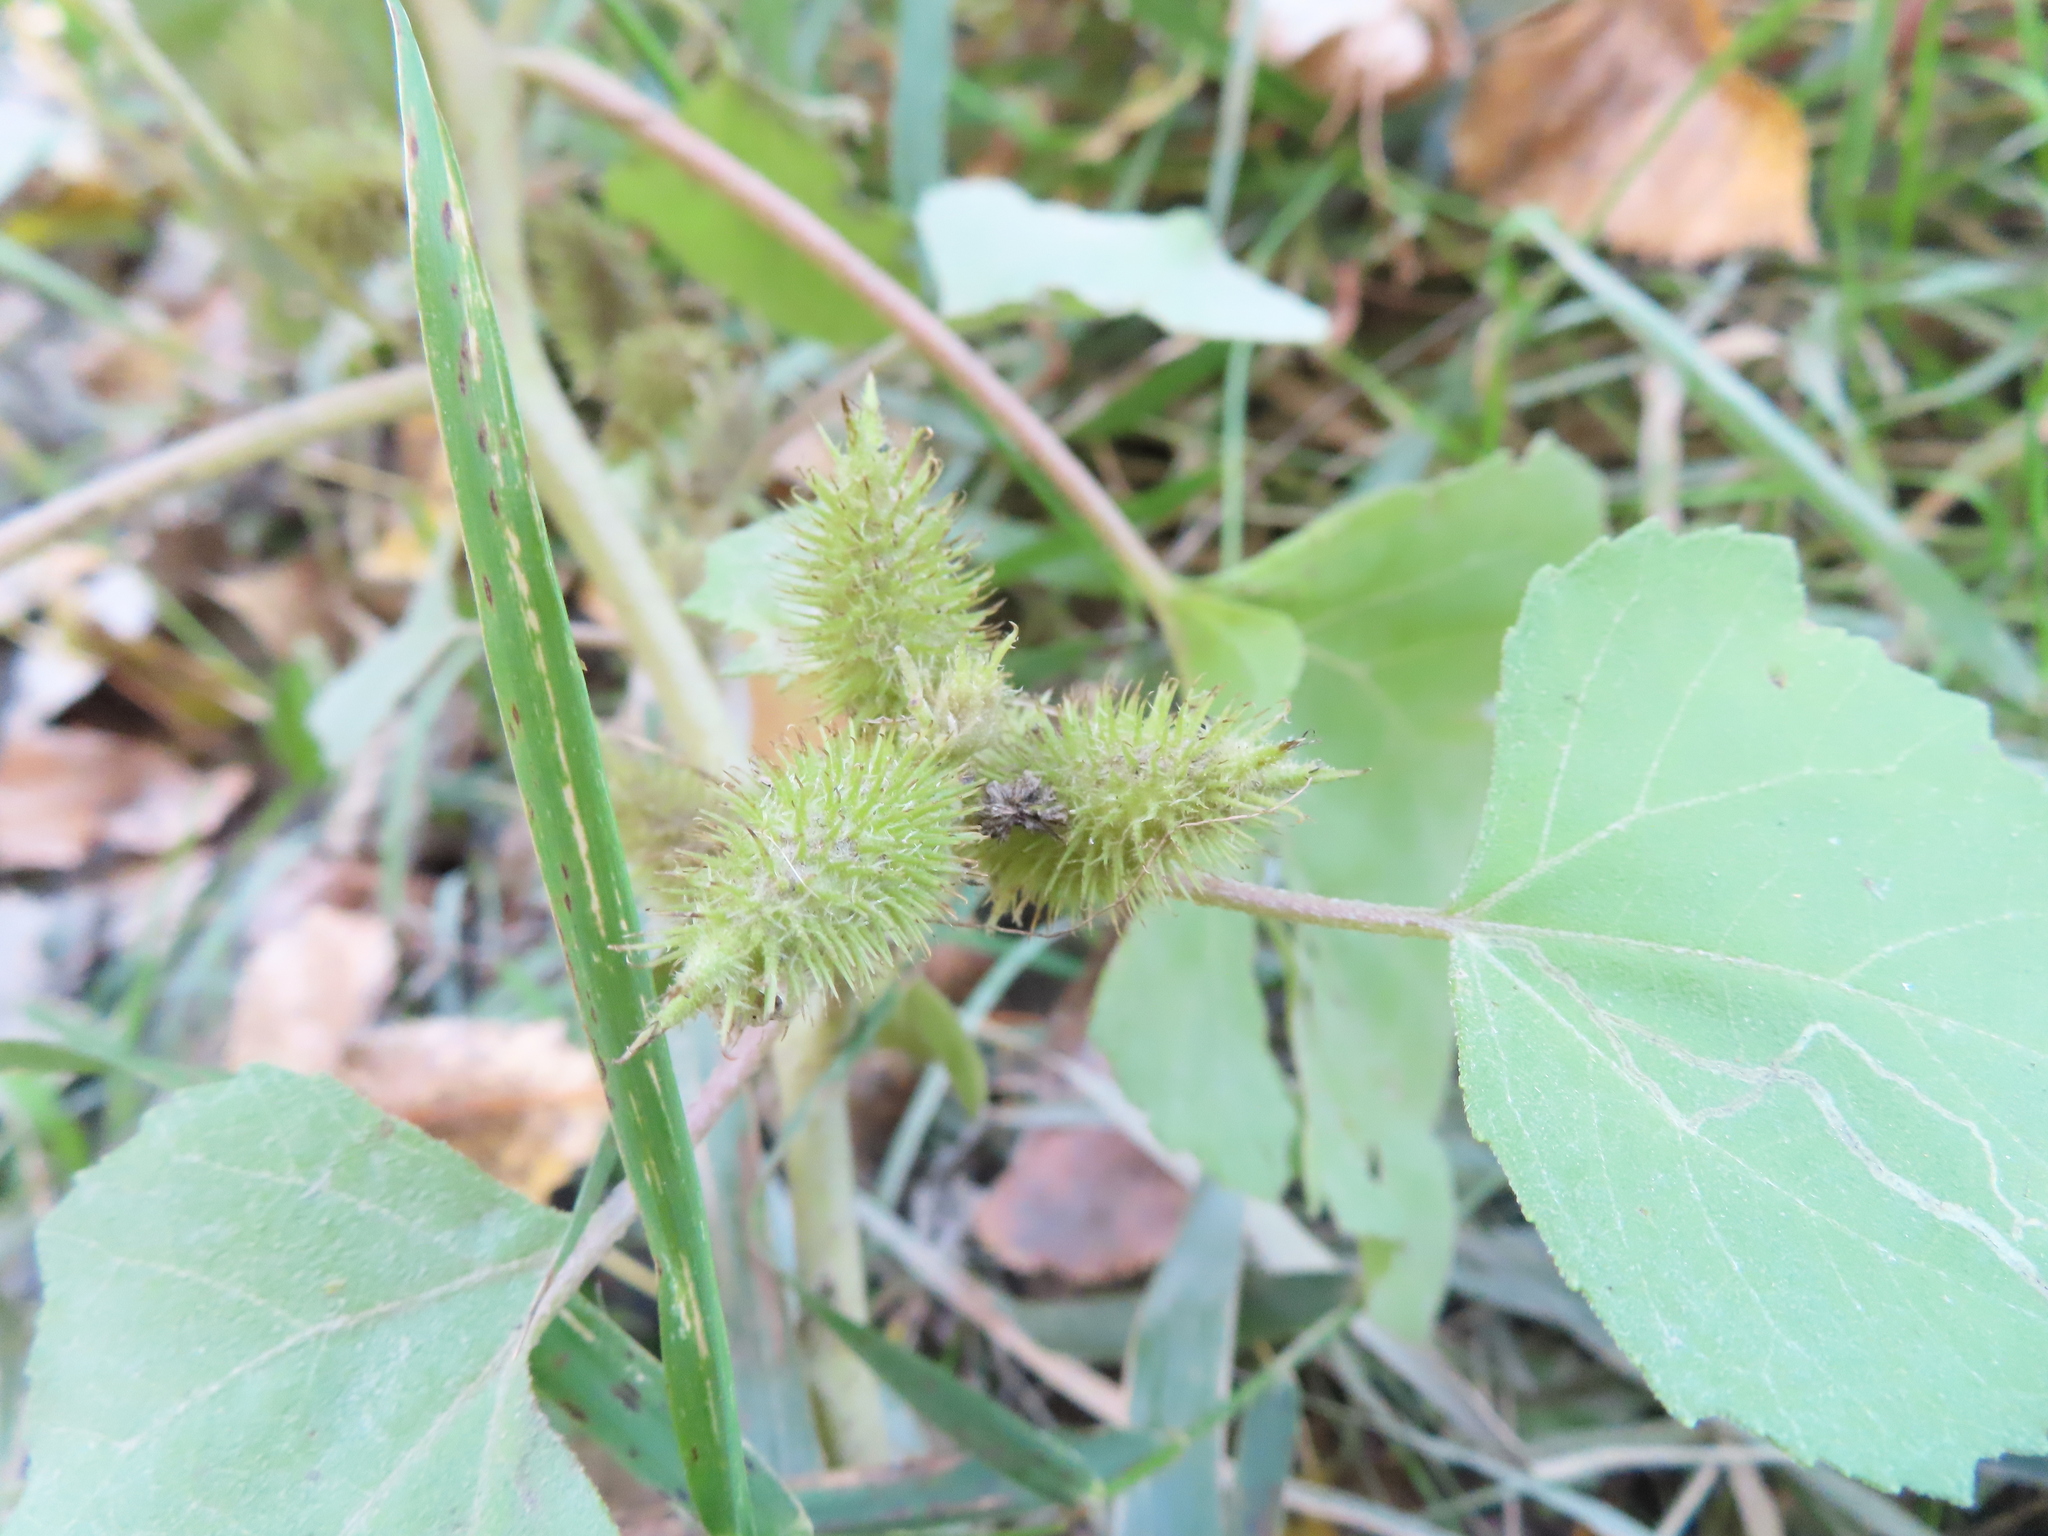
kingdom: Plantae
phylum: Tracheophyta
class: Magnoliopsida
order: Asterales
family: Asteraceae
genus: Xanthium
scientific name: Xanthium strumarium
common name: Rough cocklebur
